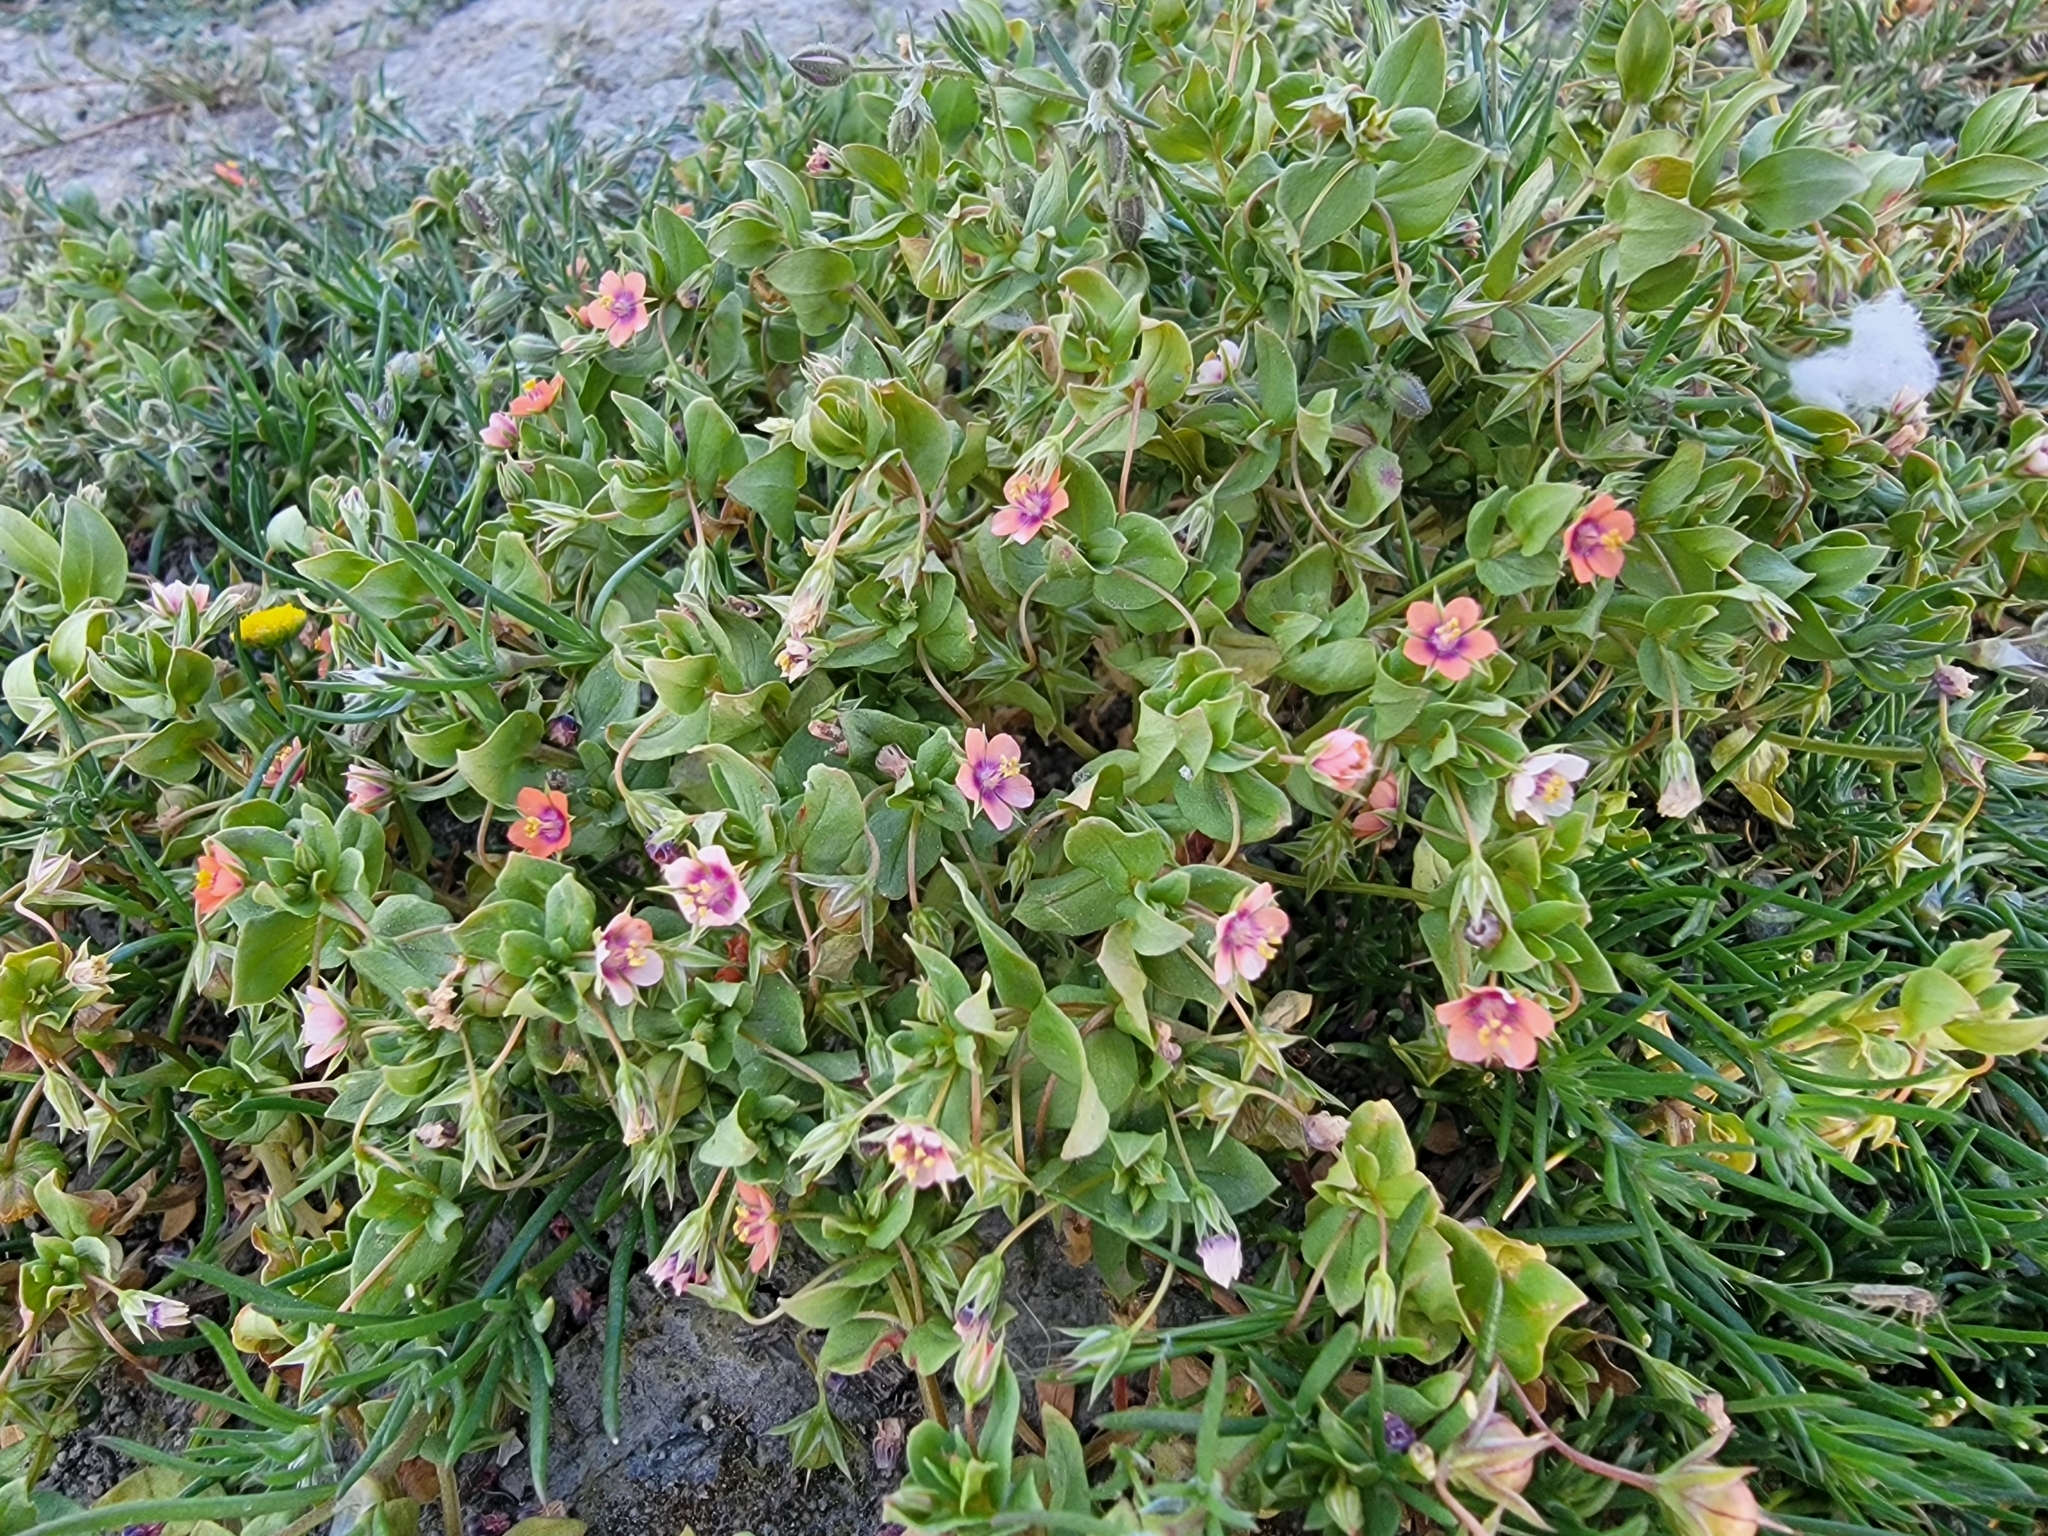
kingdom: Plantae
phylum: Tracheophyta
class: Magnoliopsida
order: Ericales
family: Primulaceae
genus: Lysimachia
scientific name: Lysimachia arvensis
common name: Scarlet pimpernel
